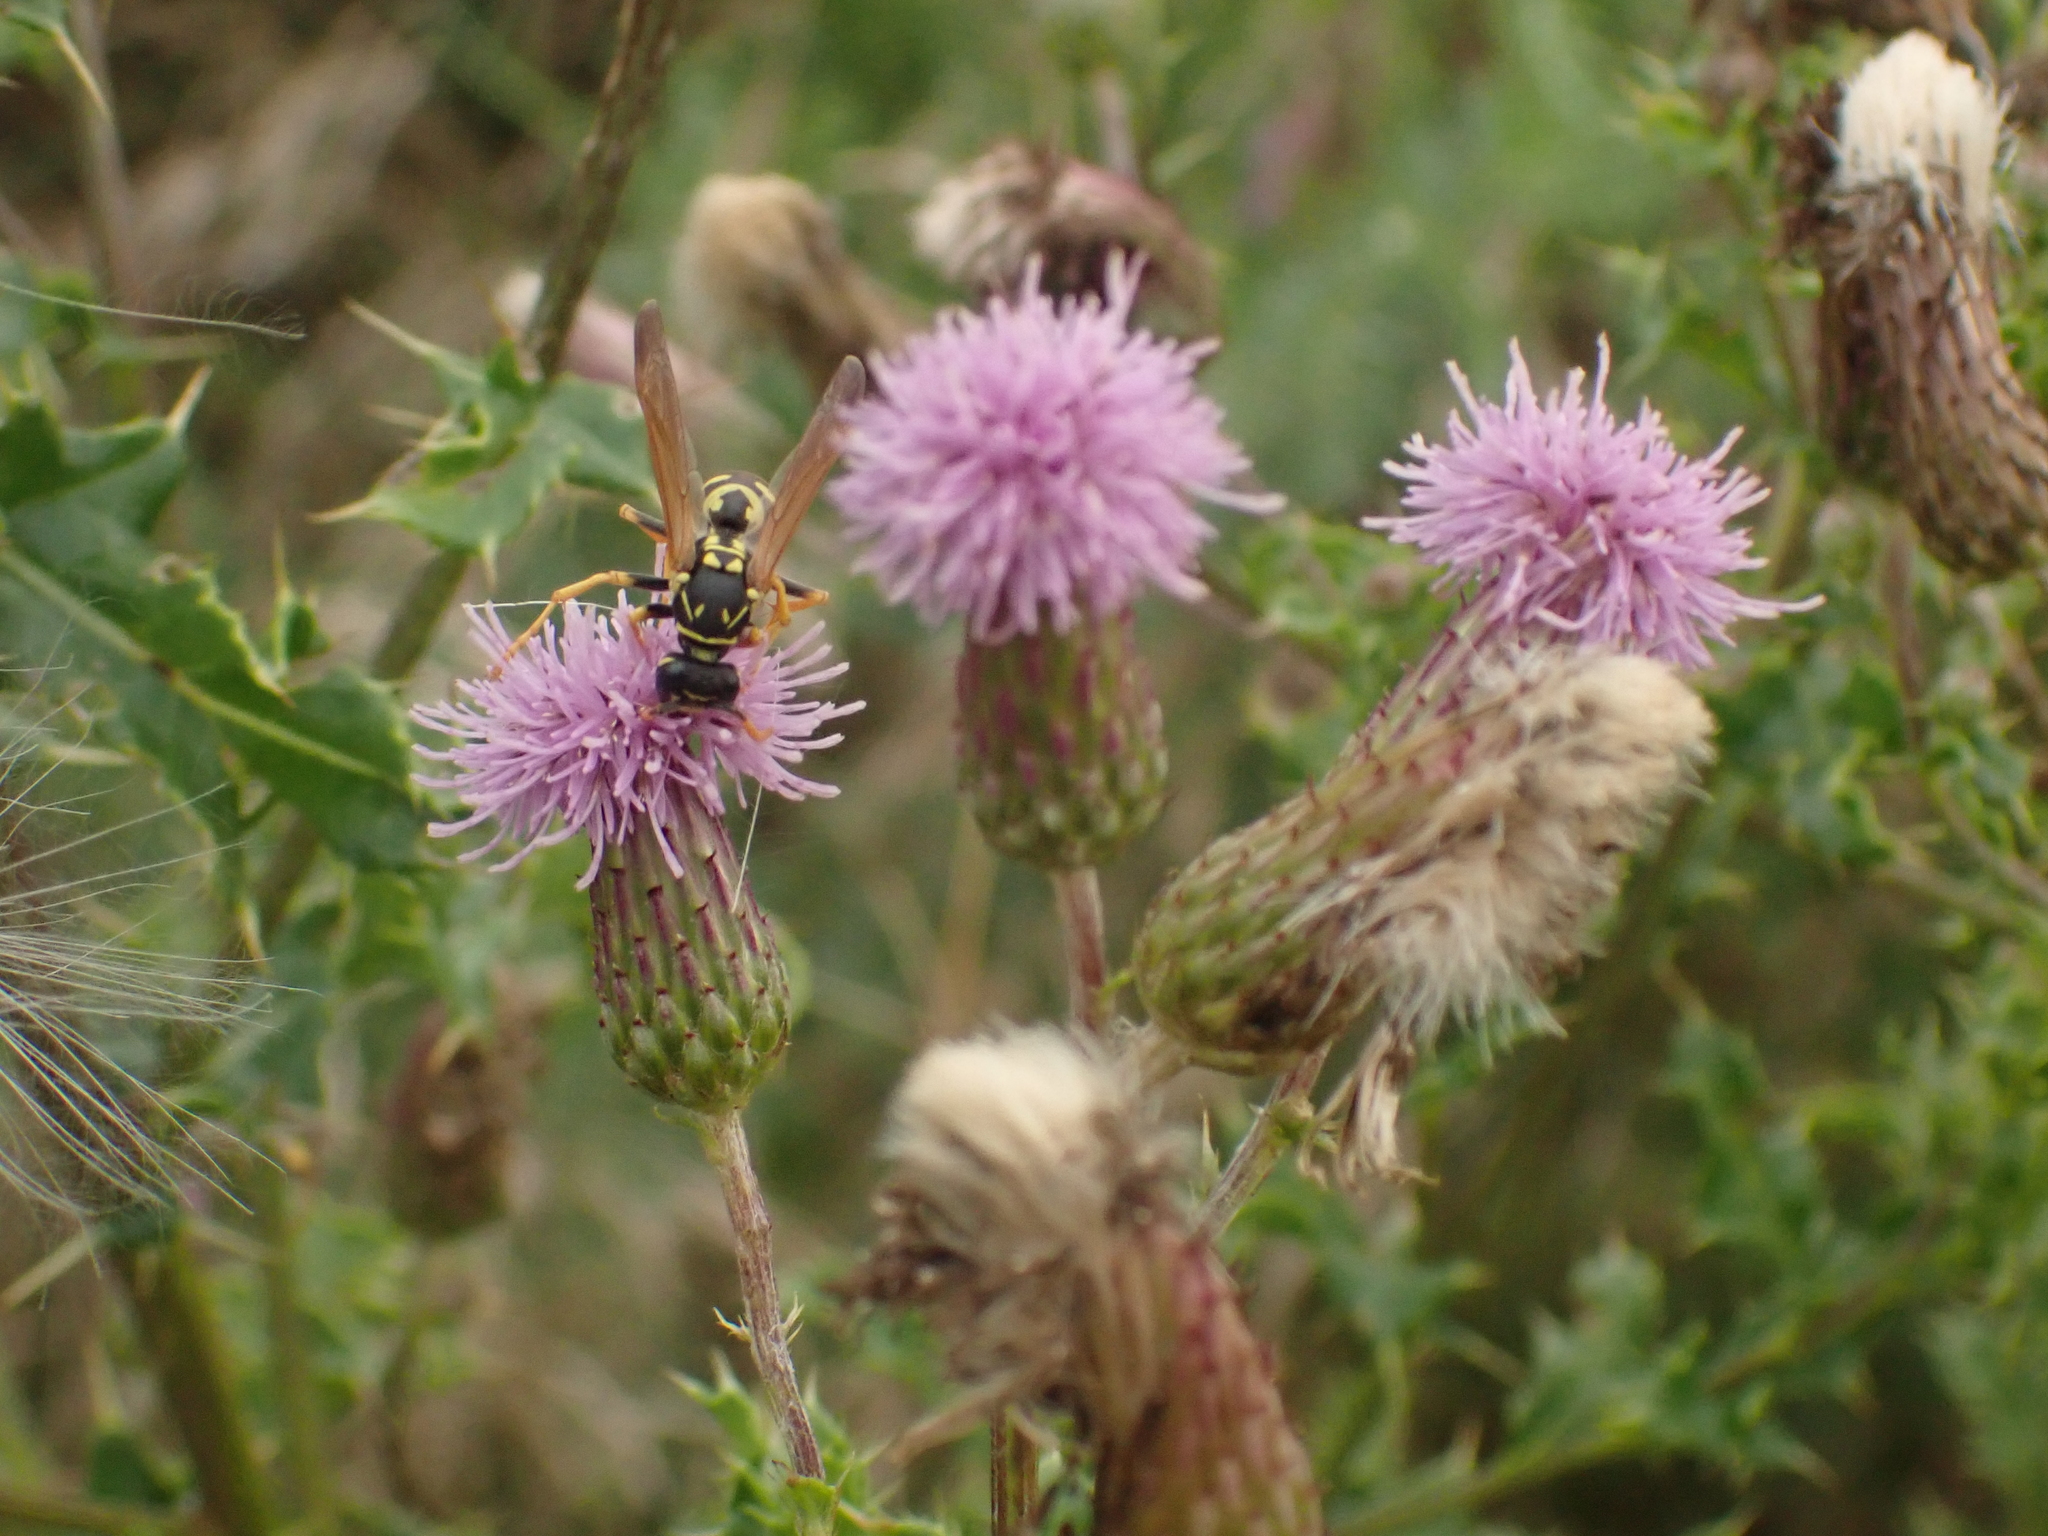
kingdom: Plantae
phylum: Tracheophyta
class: Magnoliopsida
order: Asterales
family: Asteraceae
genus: Cirsium
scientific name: Cirsium arvense
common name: Creeping thistle
